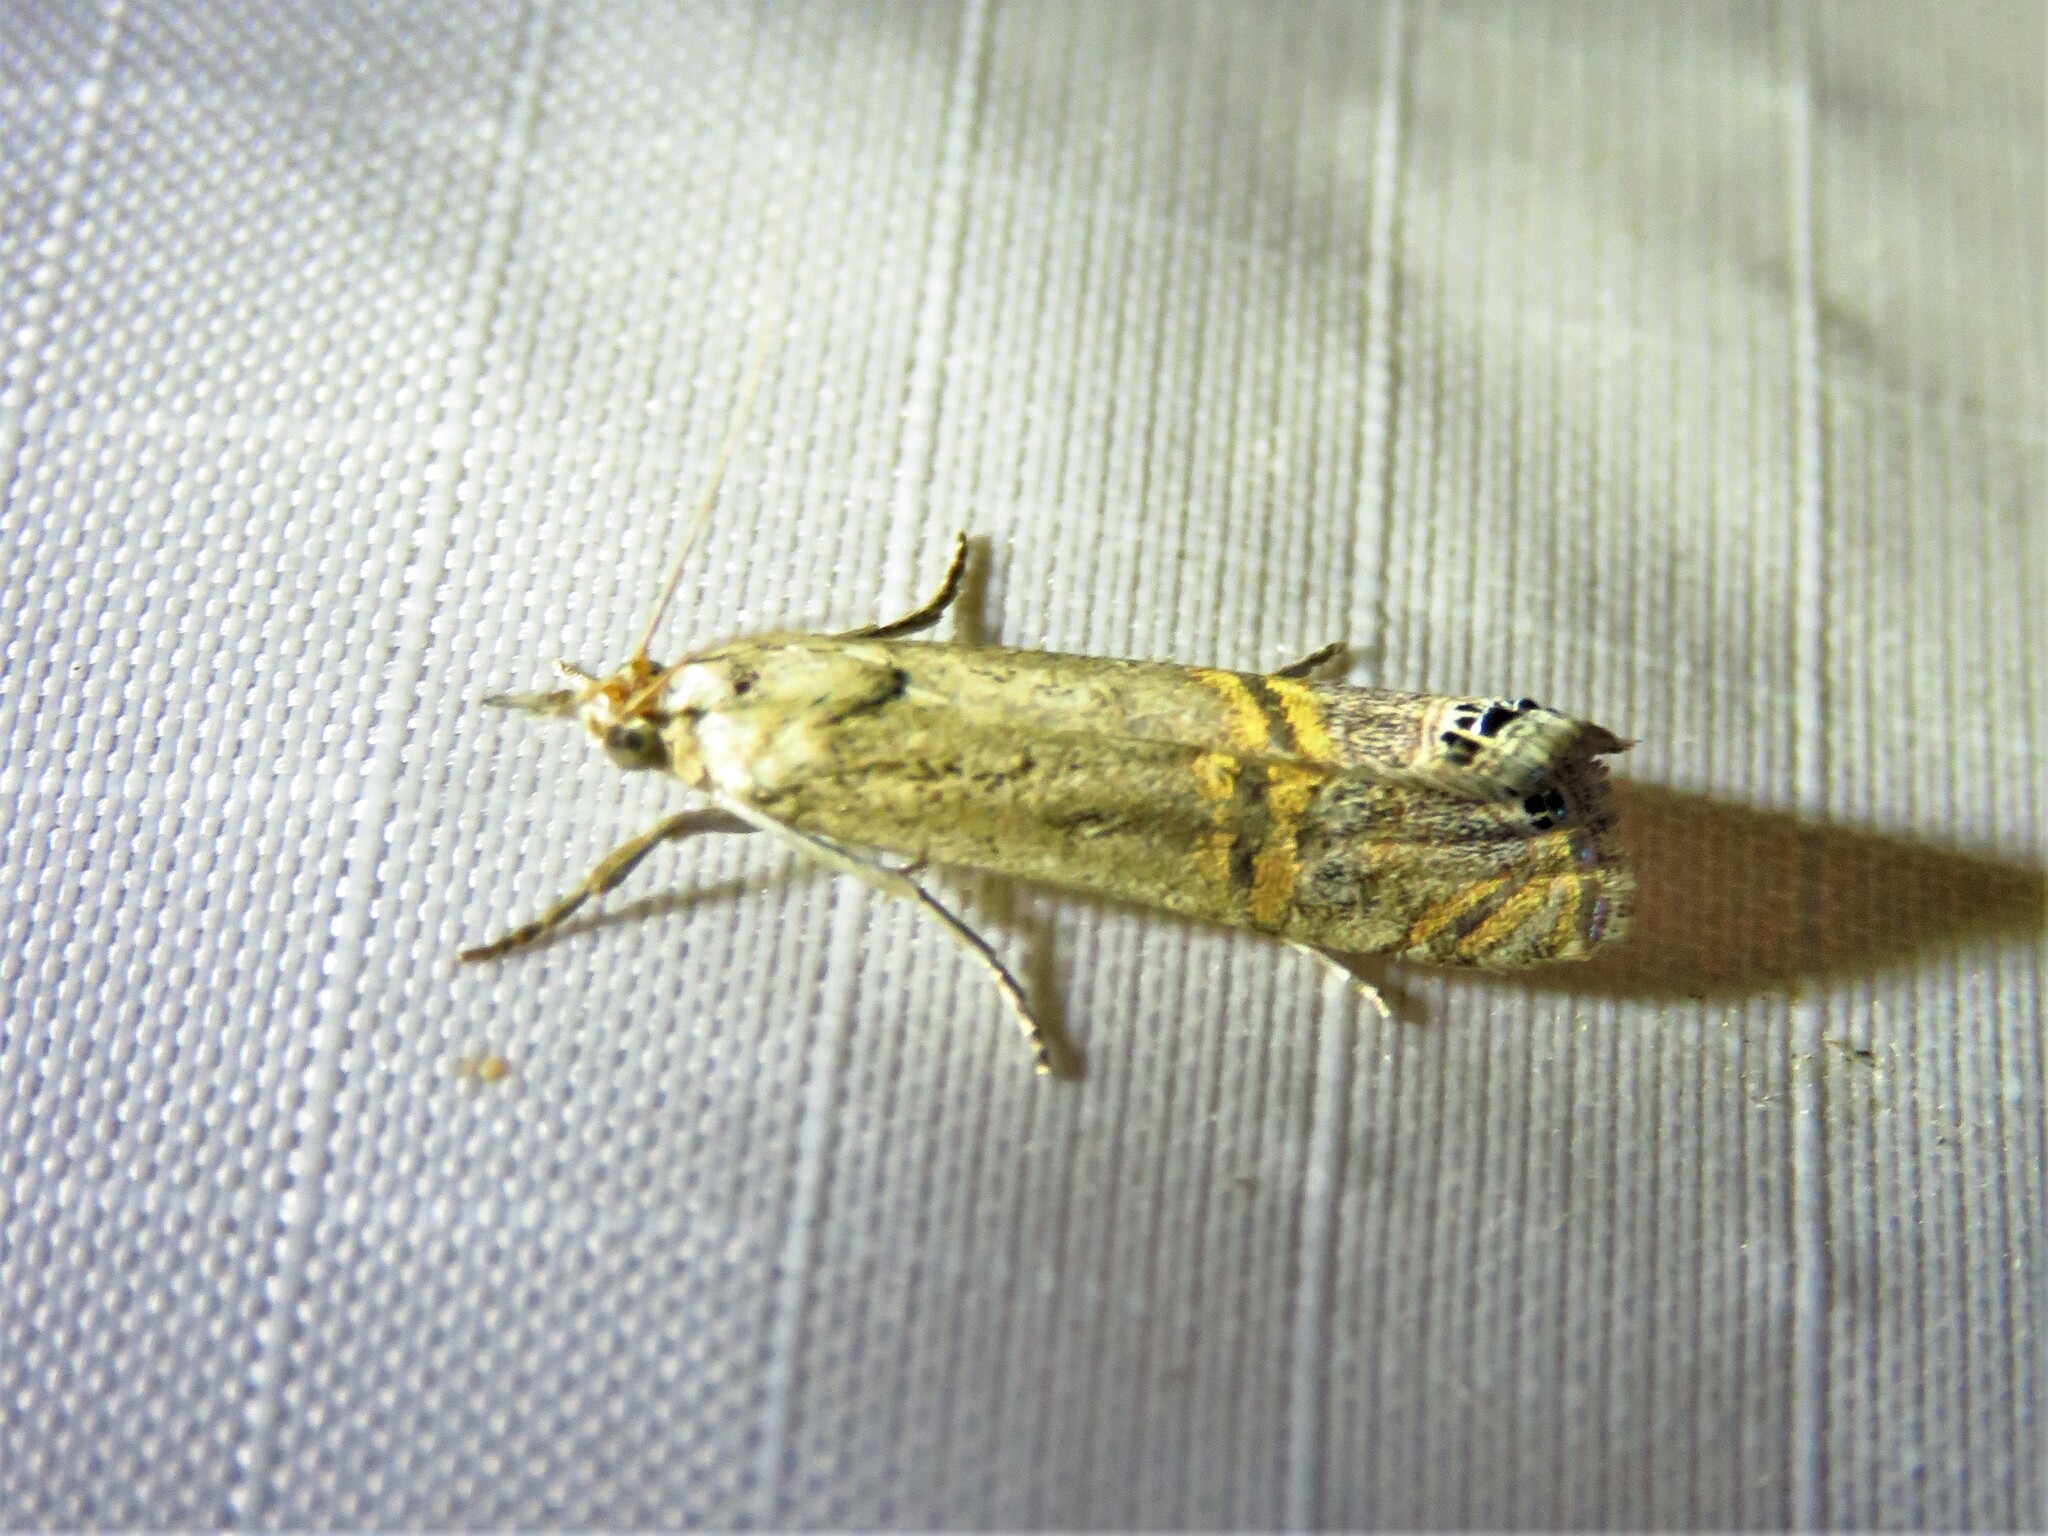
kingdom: Animalia
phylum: Arthropoda
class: Insecta
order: Lepidoptera
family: Crambidae
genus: Euchromius
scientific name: Euchromius ocellea
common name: Necklace veneer moth
